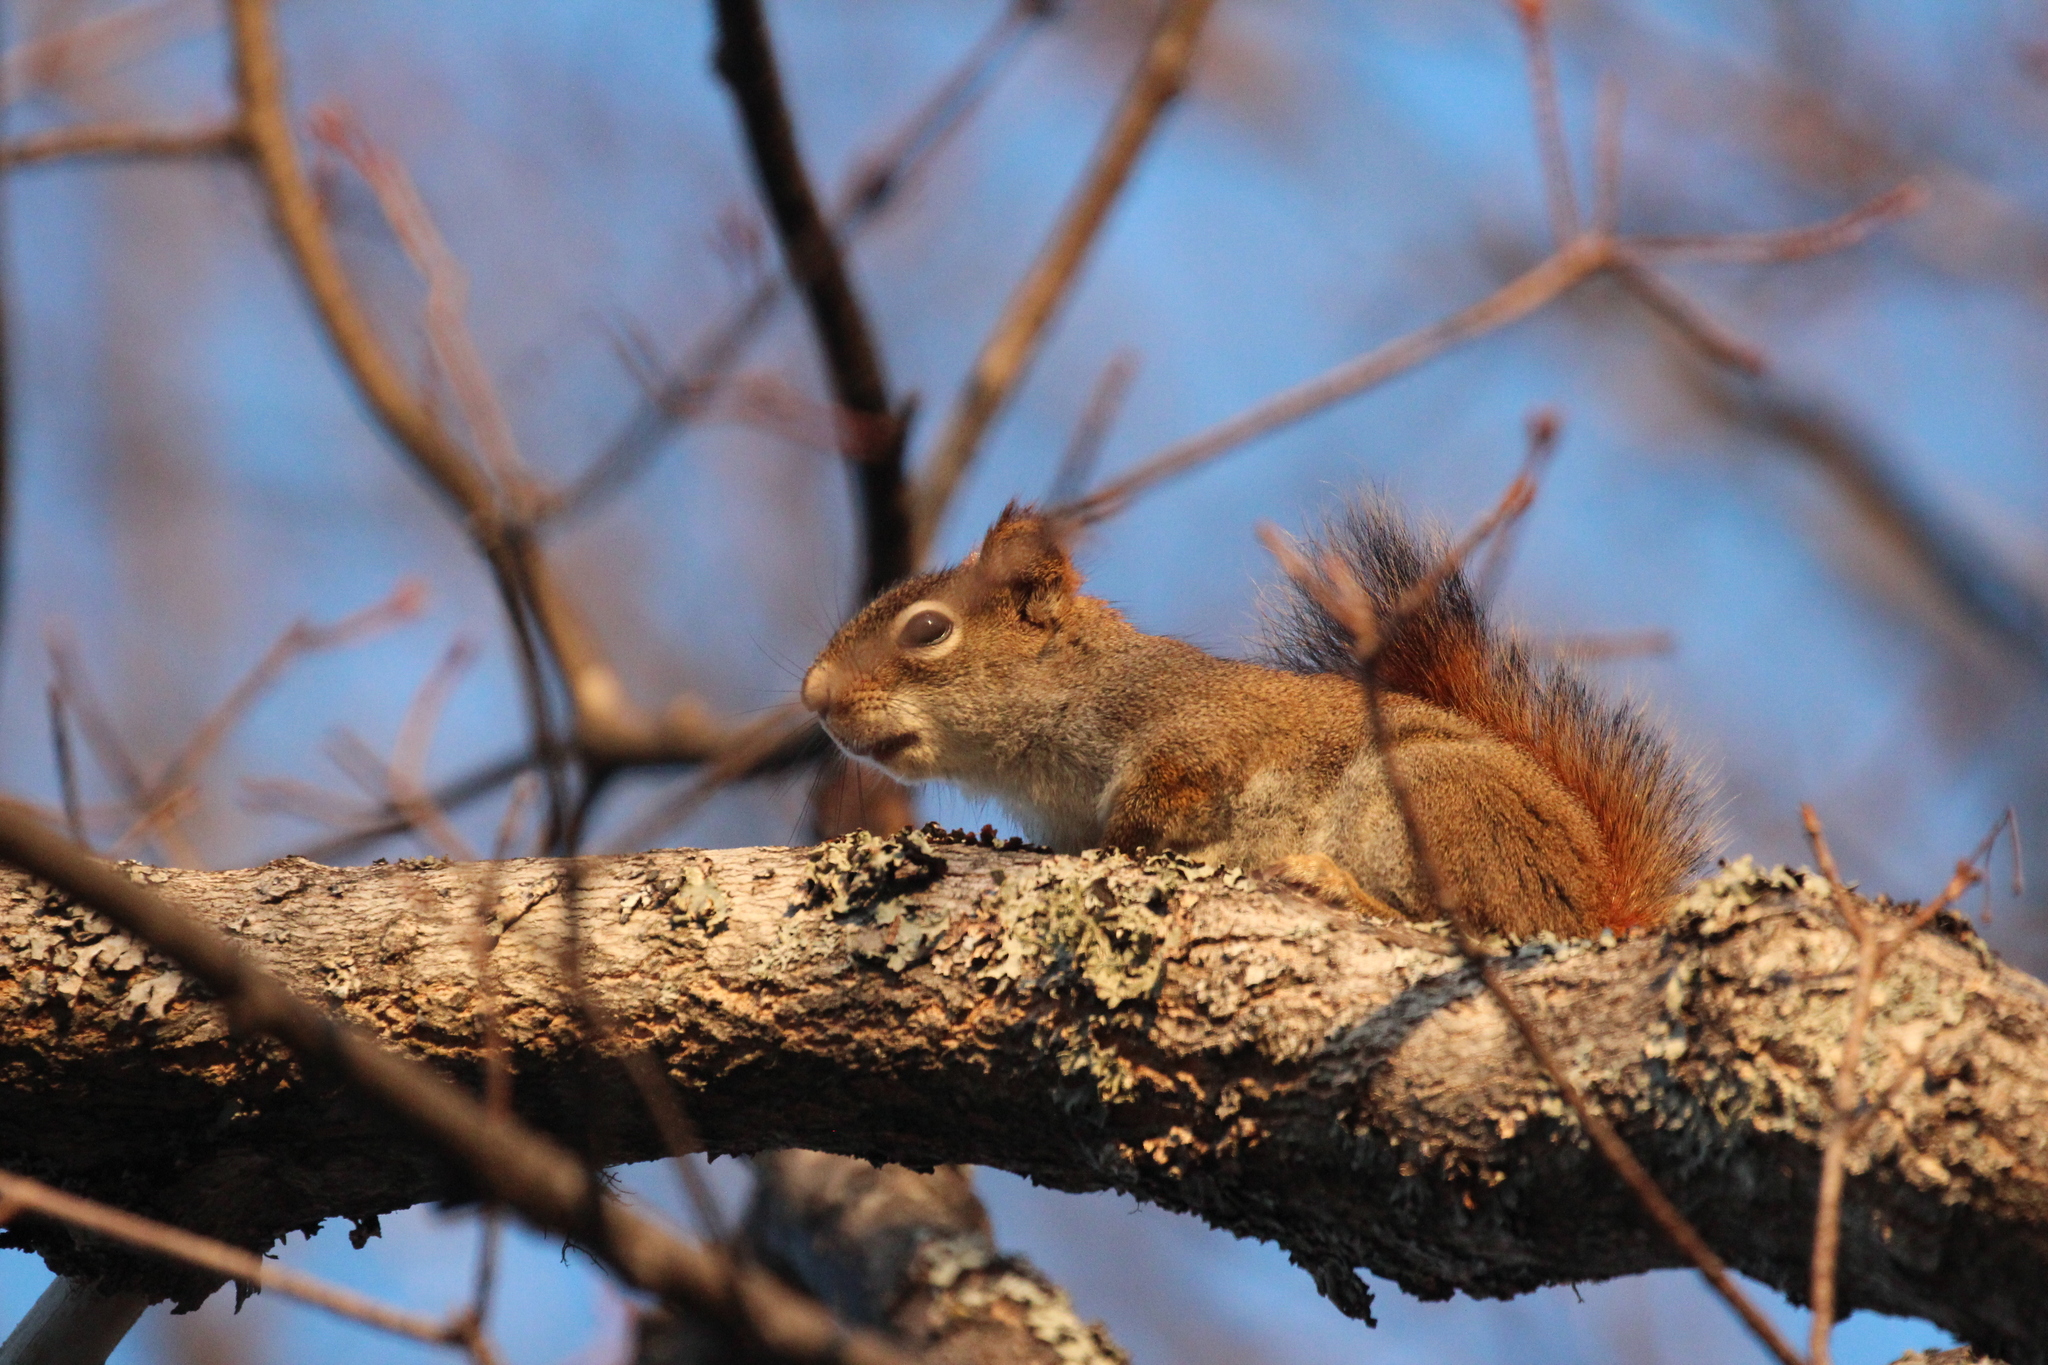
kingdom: Animalia
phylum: Chordata
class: Mammalia
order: Rodentia
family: Sciuridae
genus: Tamiasciurus
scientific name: Tamiasciurus hudsonicus
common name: Red squirrel
